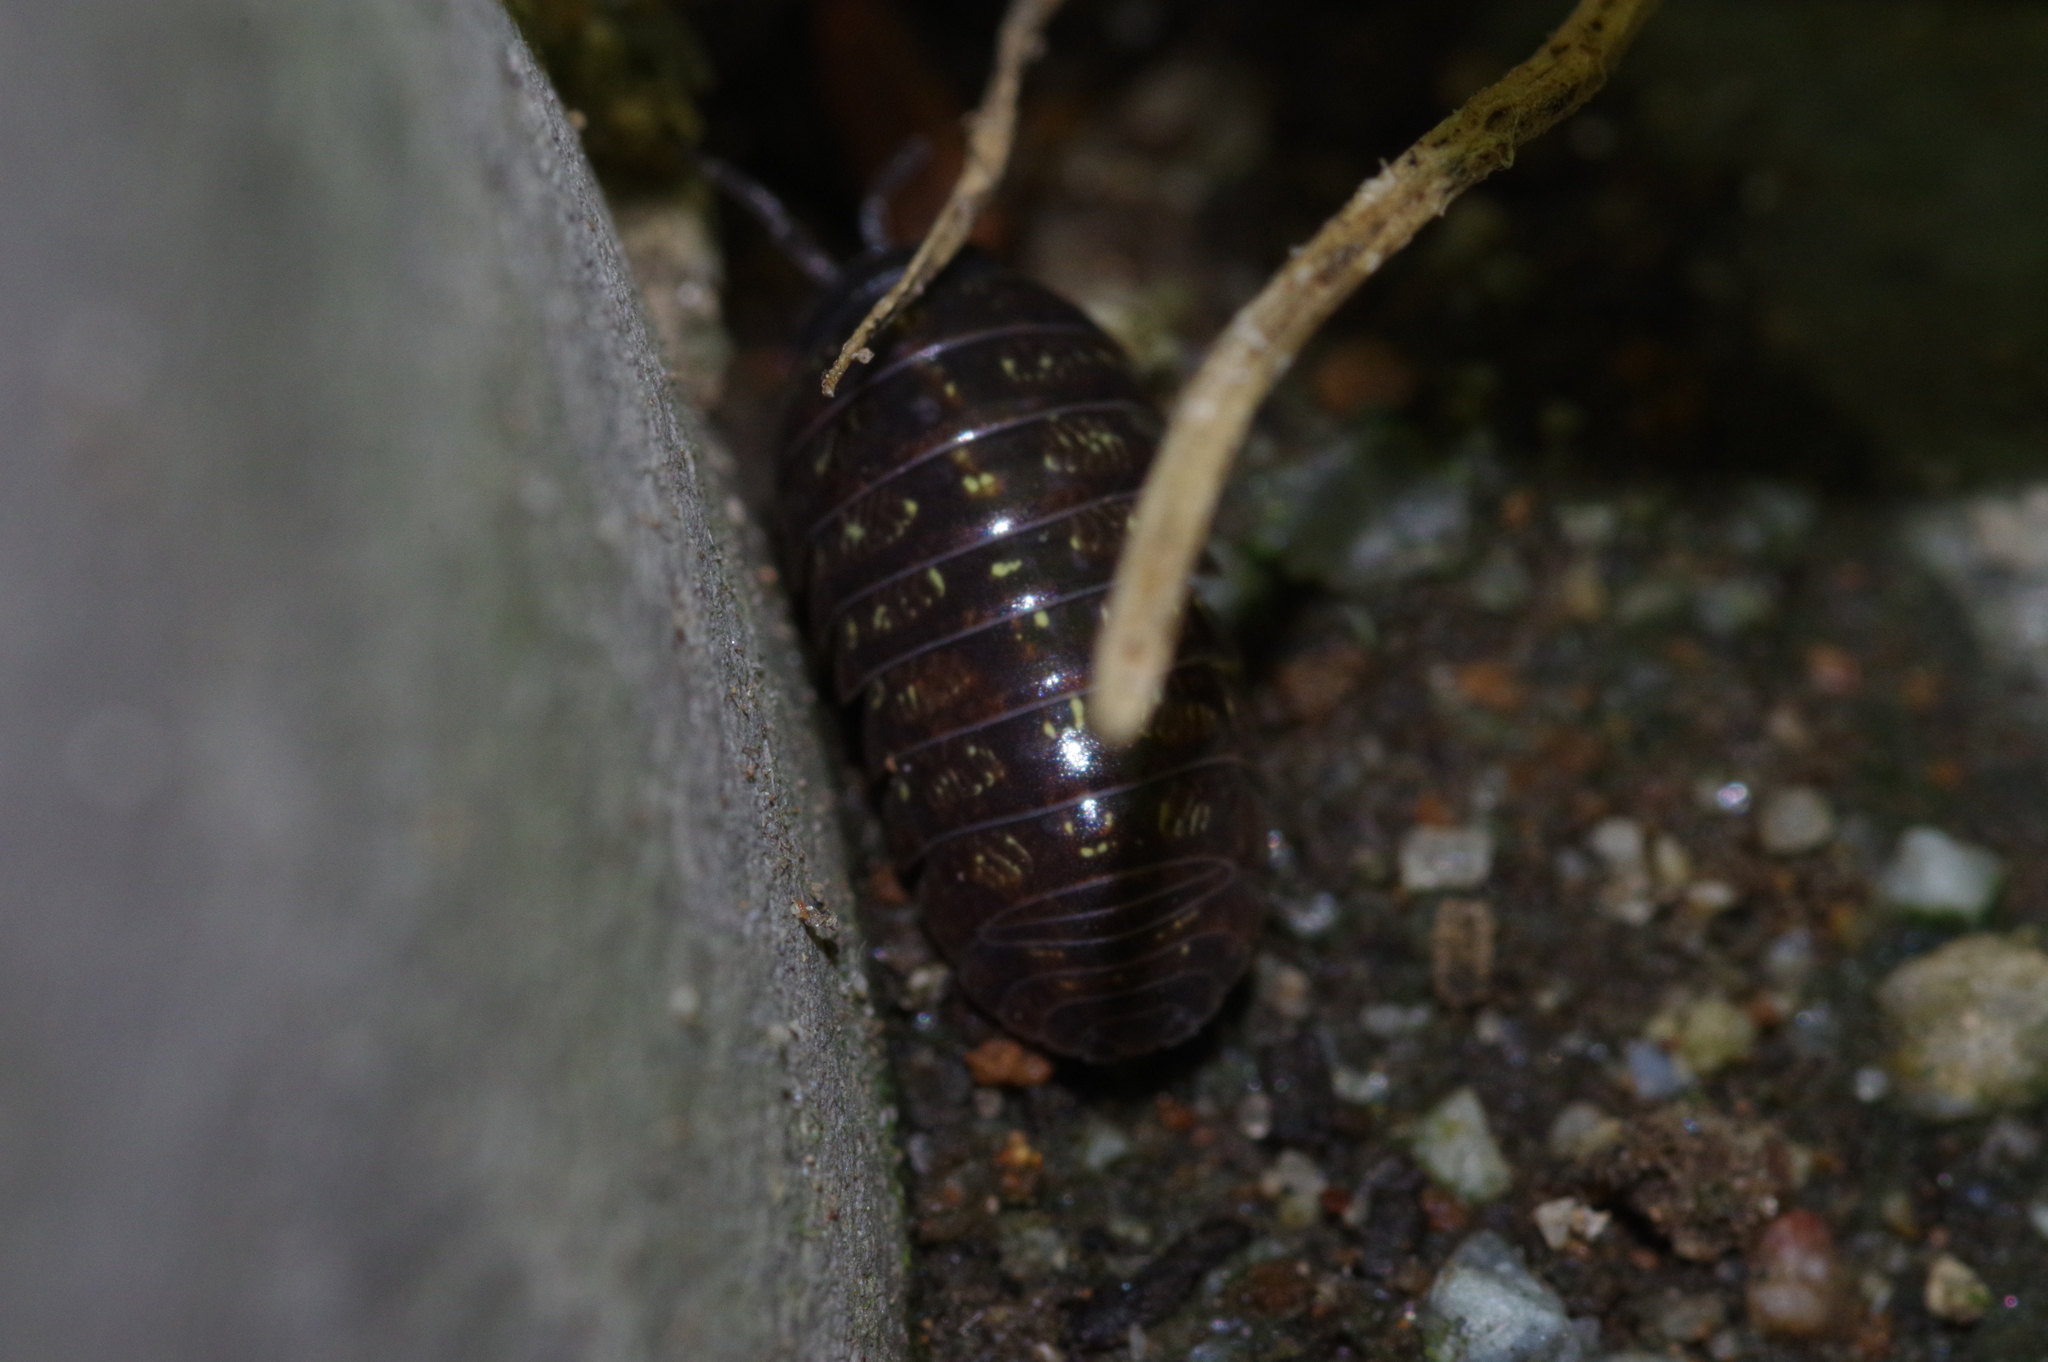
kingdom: Animalia
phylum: Arthropoda
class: Malacostraca
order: Isopoda
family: Armadillidiidae
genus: Armadillidium
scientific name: Armadillidium vulgare
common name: Common pill woodlouse
